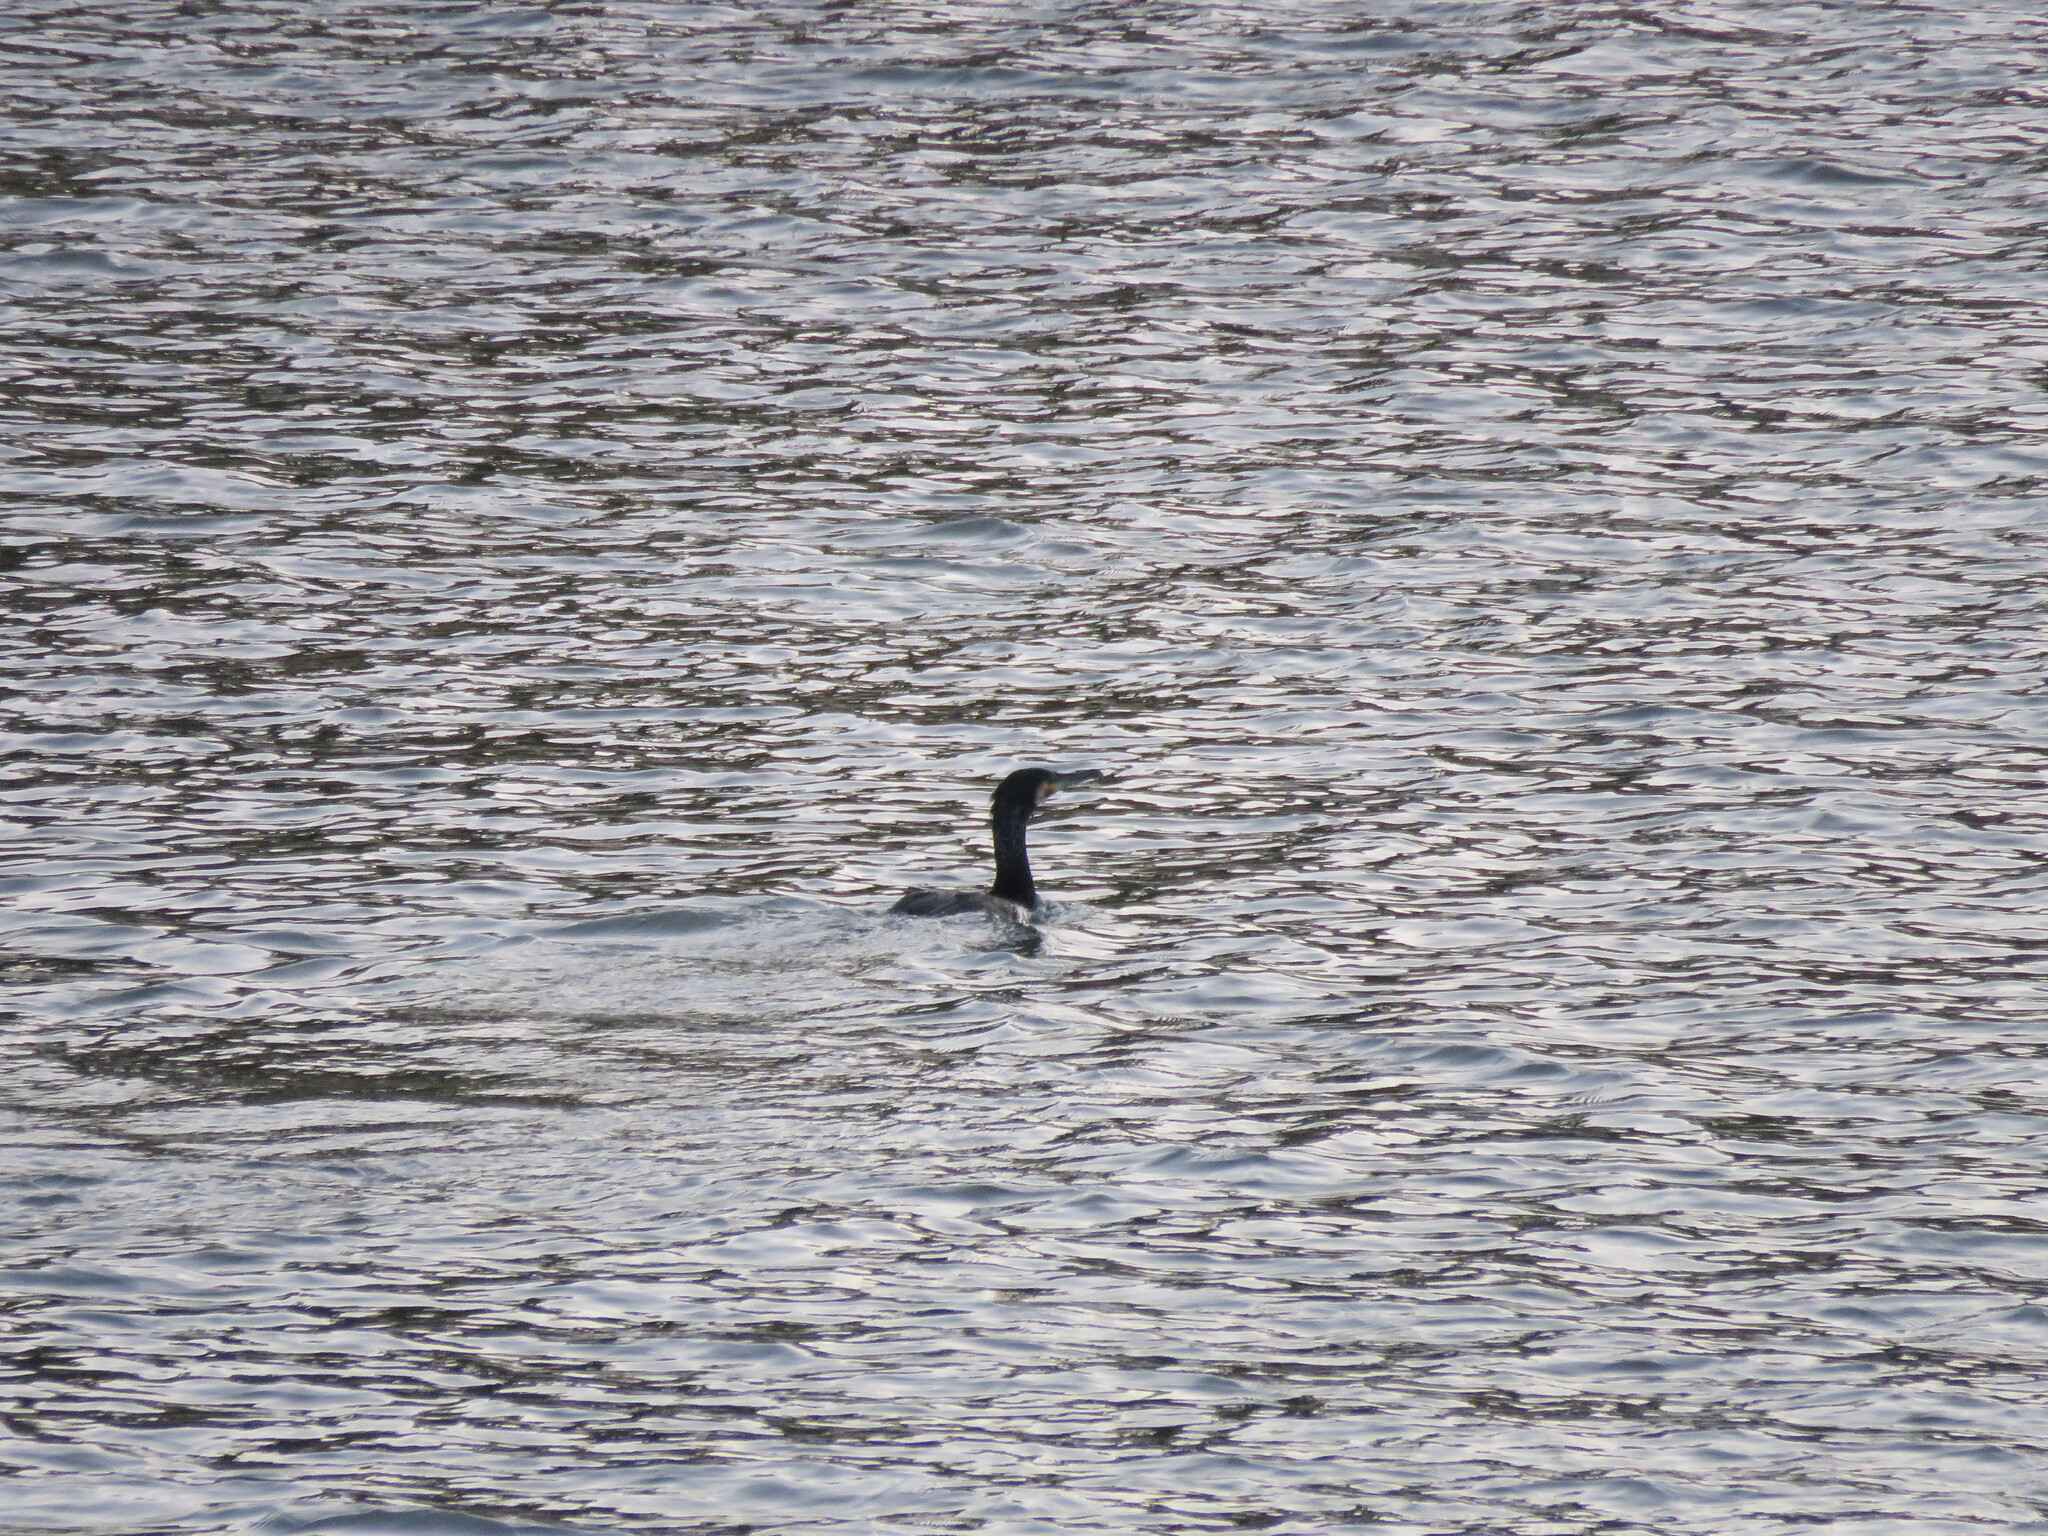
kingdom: Animalia
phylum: Chordata
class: Aves
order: Suliformes
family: Phalacrocoracidae
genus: Phalacrocorax
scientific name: Phalacrocorax carbo
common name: Great cormorant
